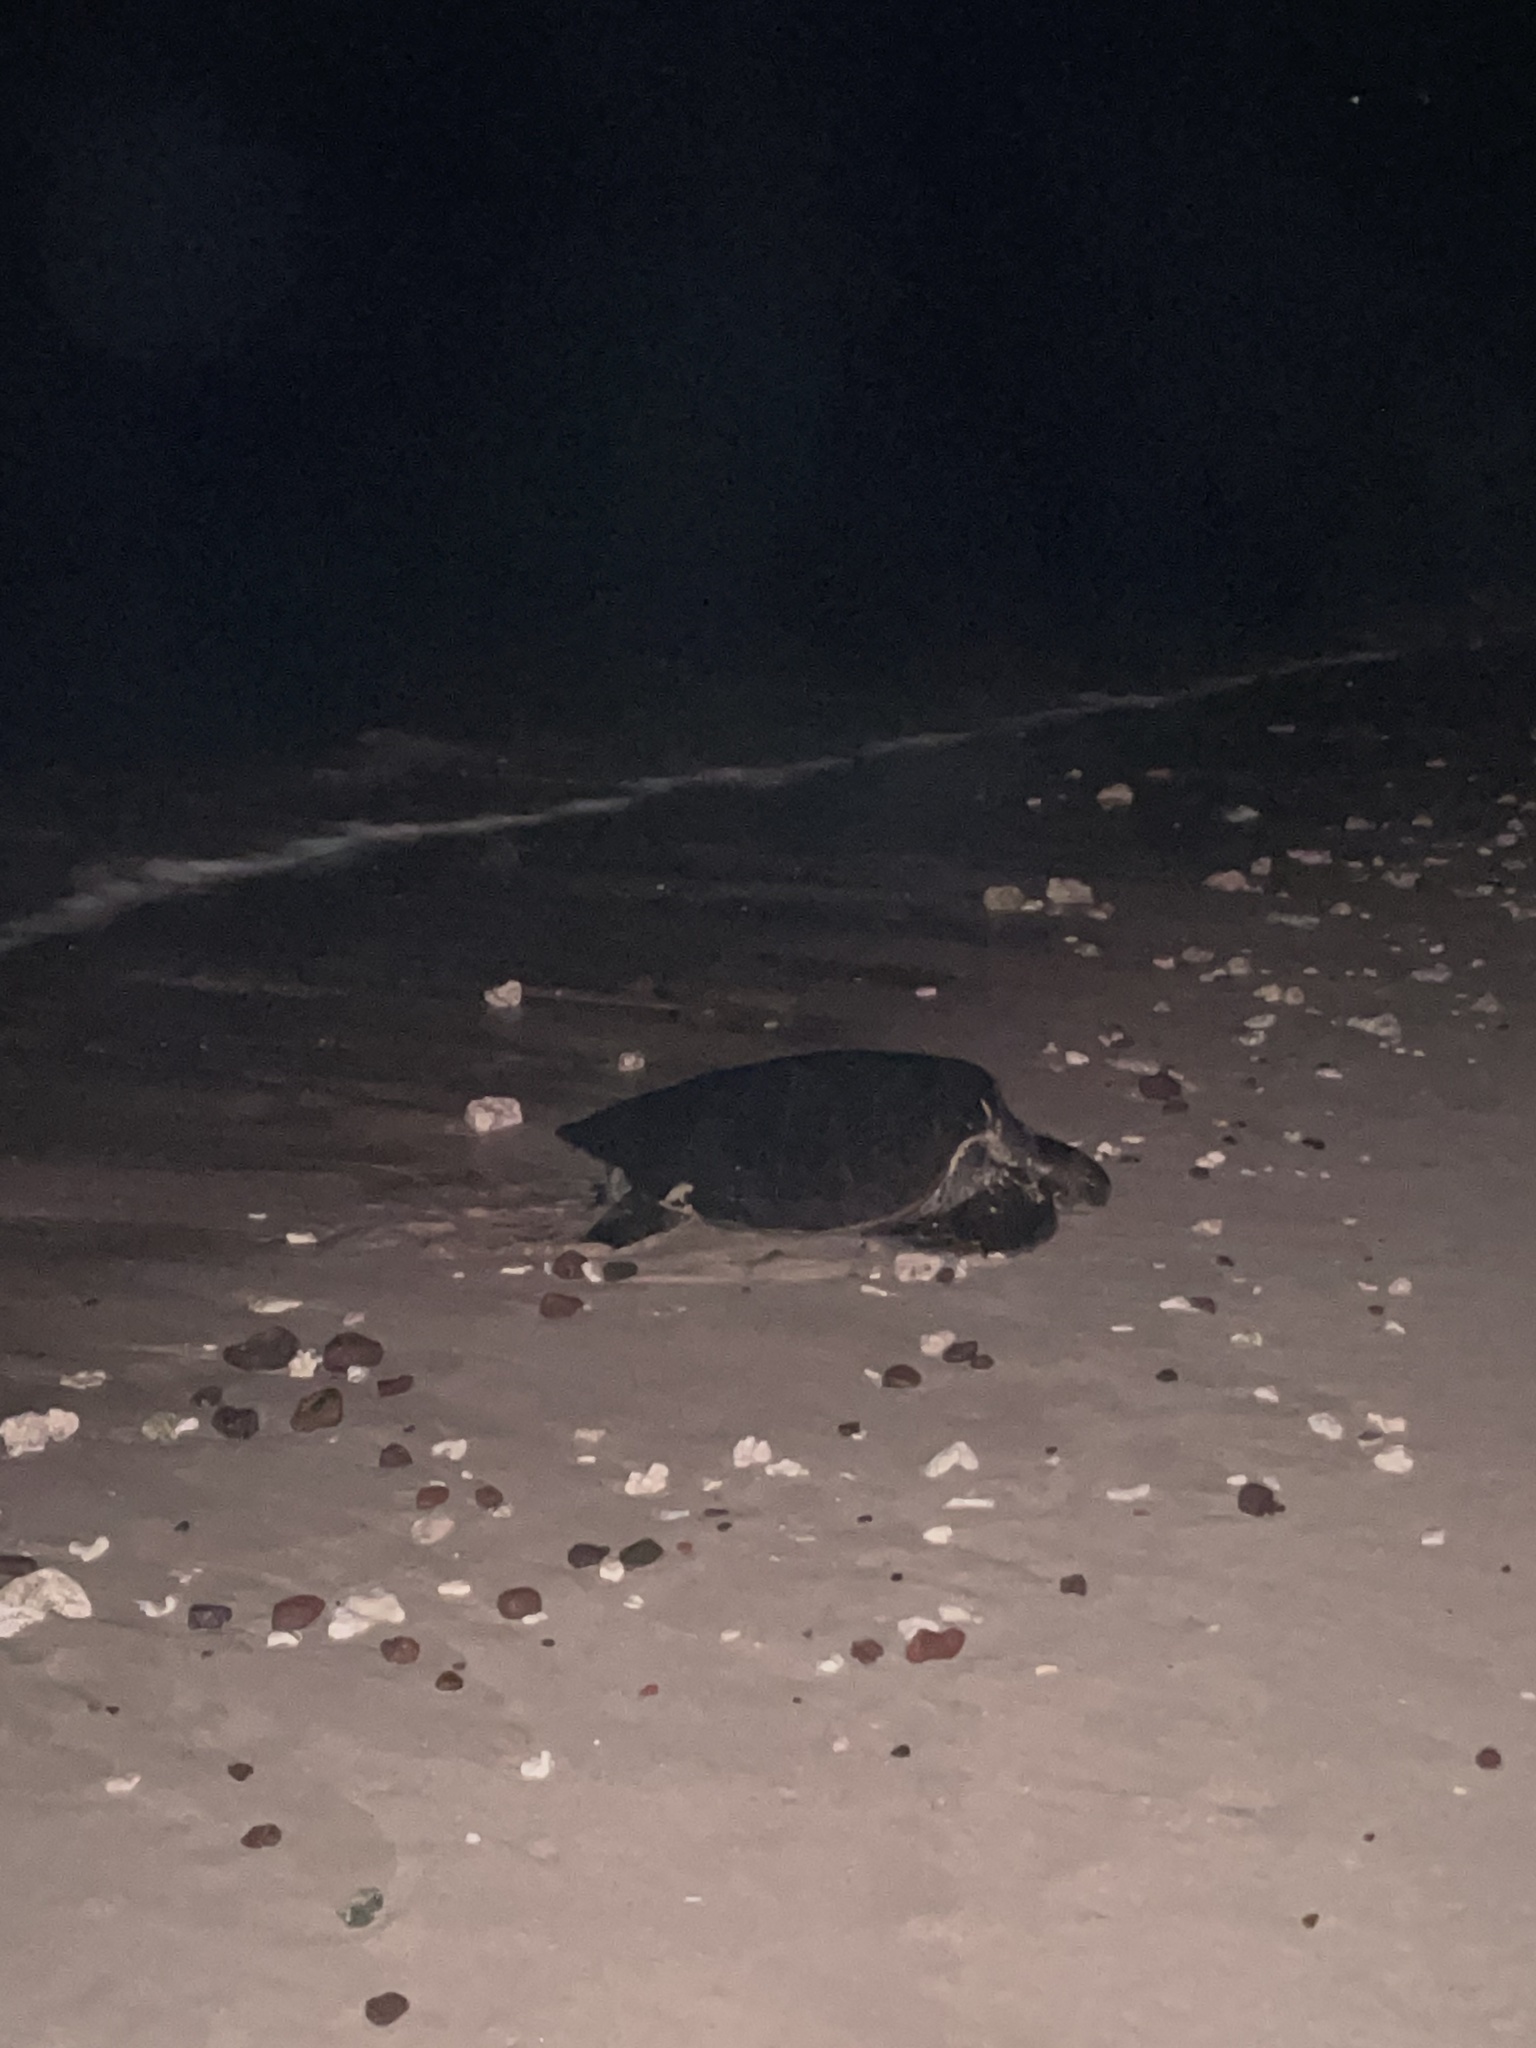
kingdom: Animalia
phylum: Chordata
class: Testudines
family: Cheloniidae
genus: Chelonia
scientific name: Chelonia mydas
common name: Green turtle
